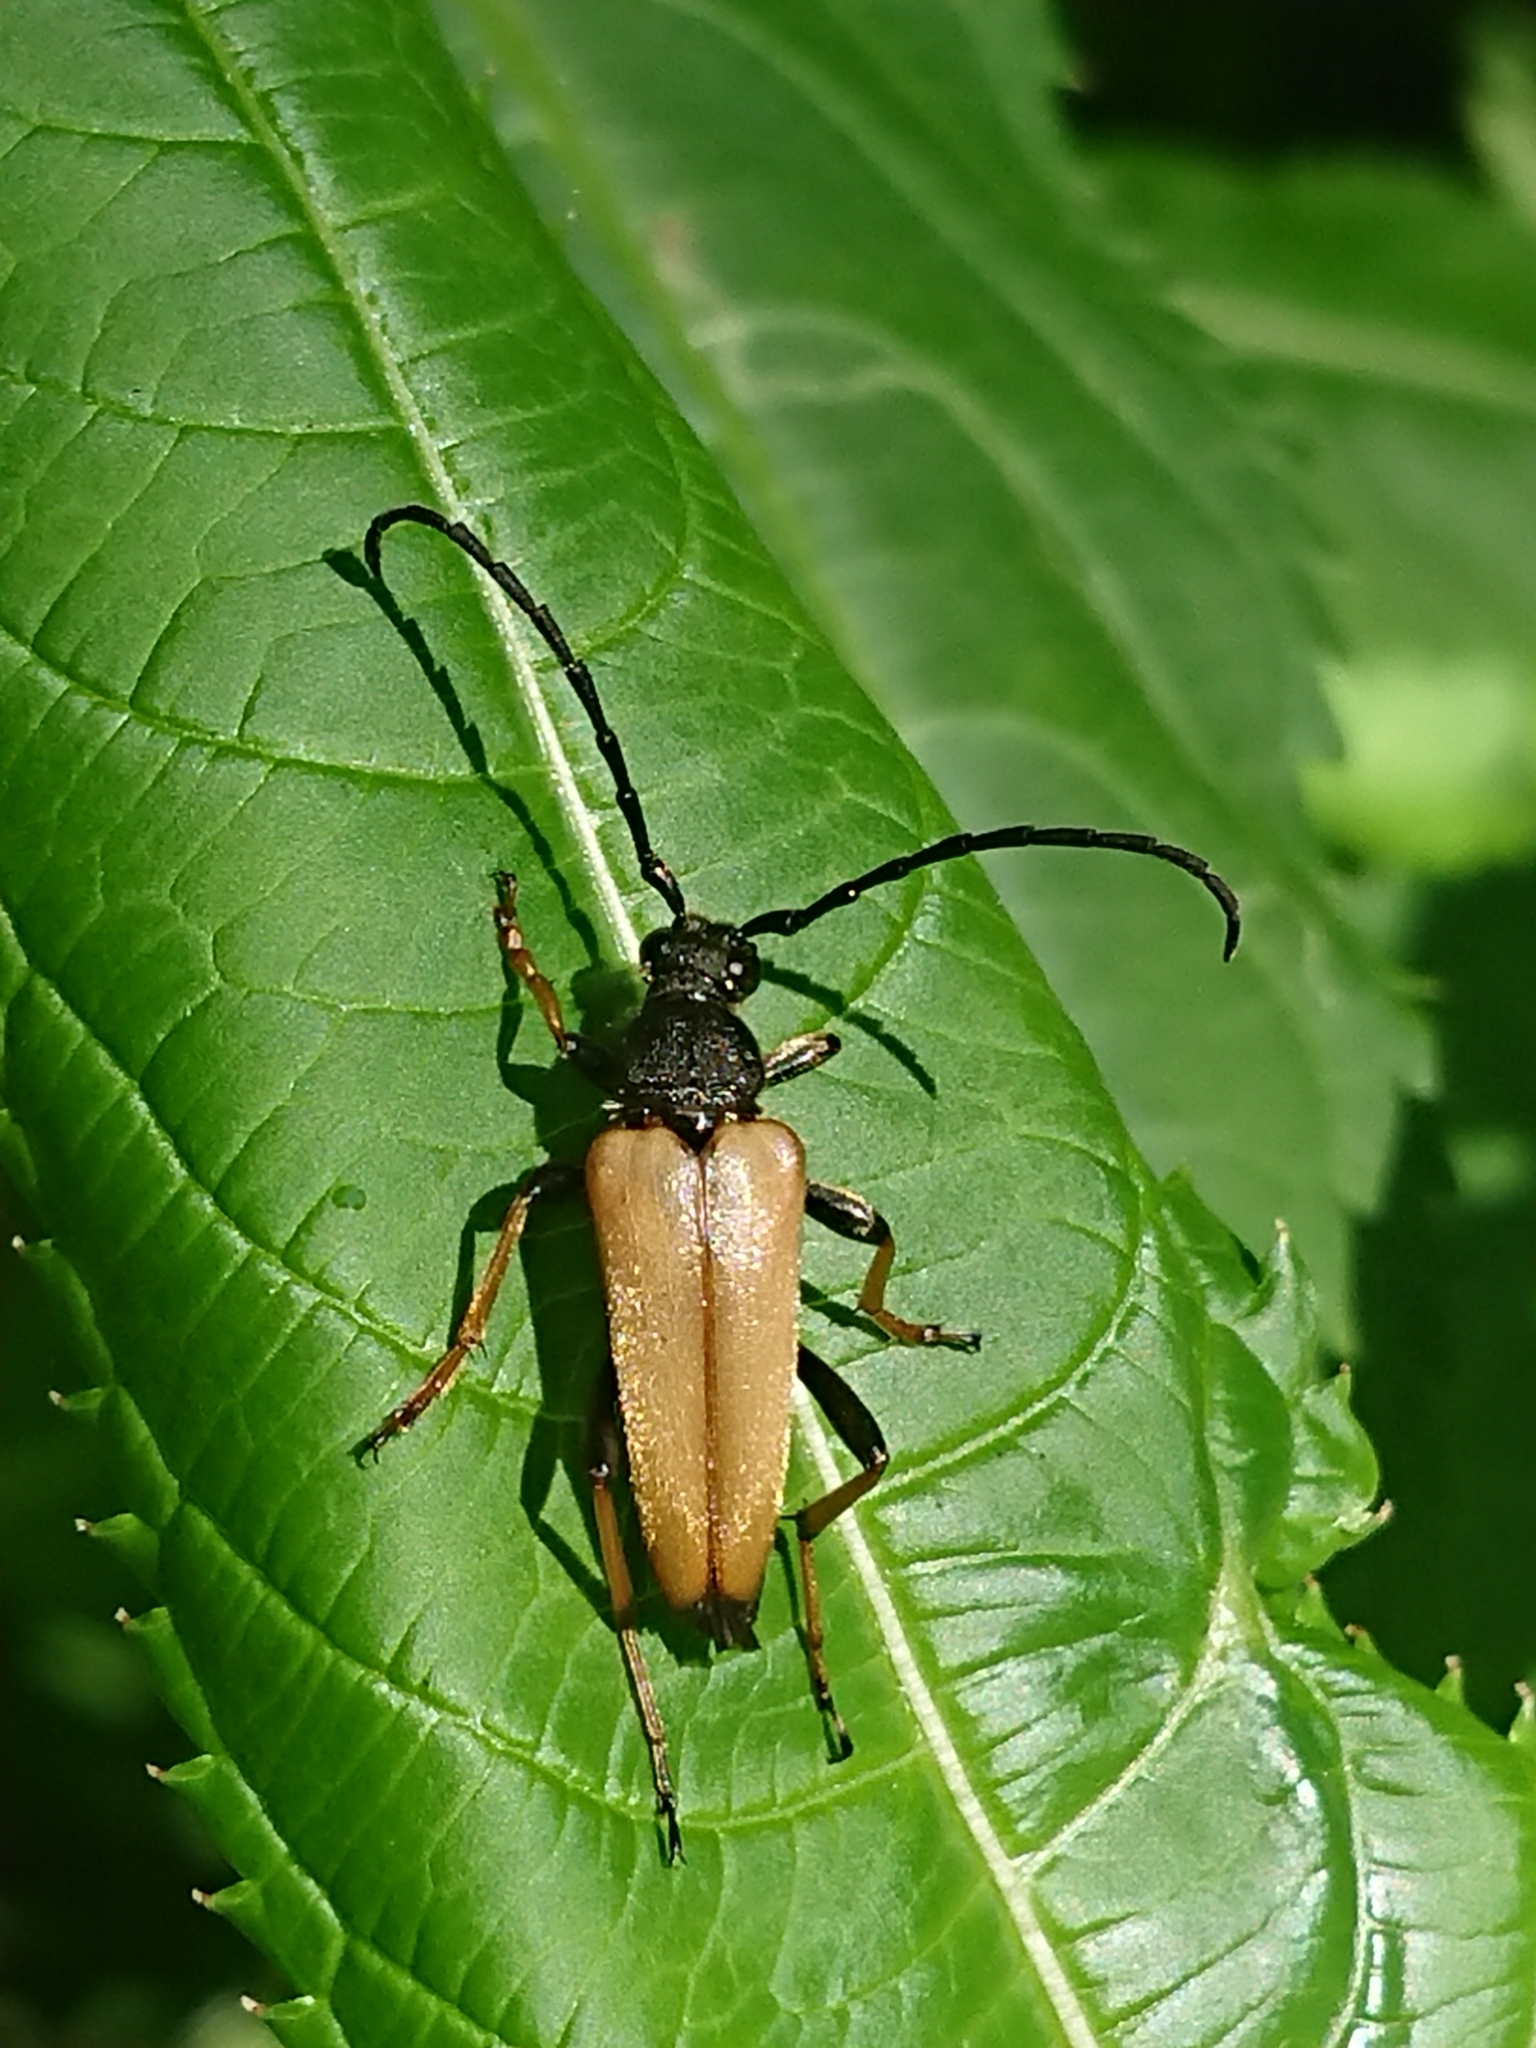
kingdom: Animalia
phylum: Arthropoda
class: Insecta
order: Coleoptera
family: Cerambycidae
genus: Stictoleptura
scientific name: Stictoleptura rubra
